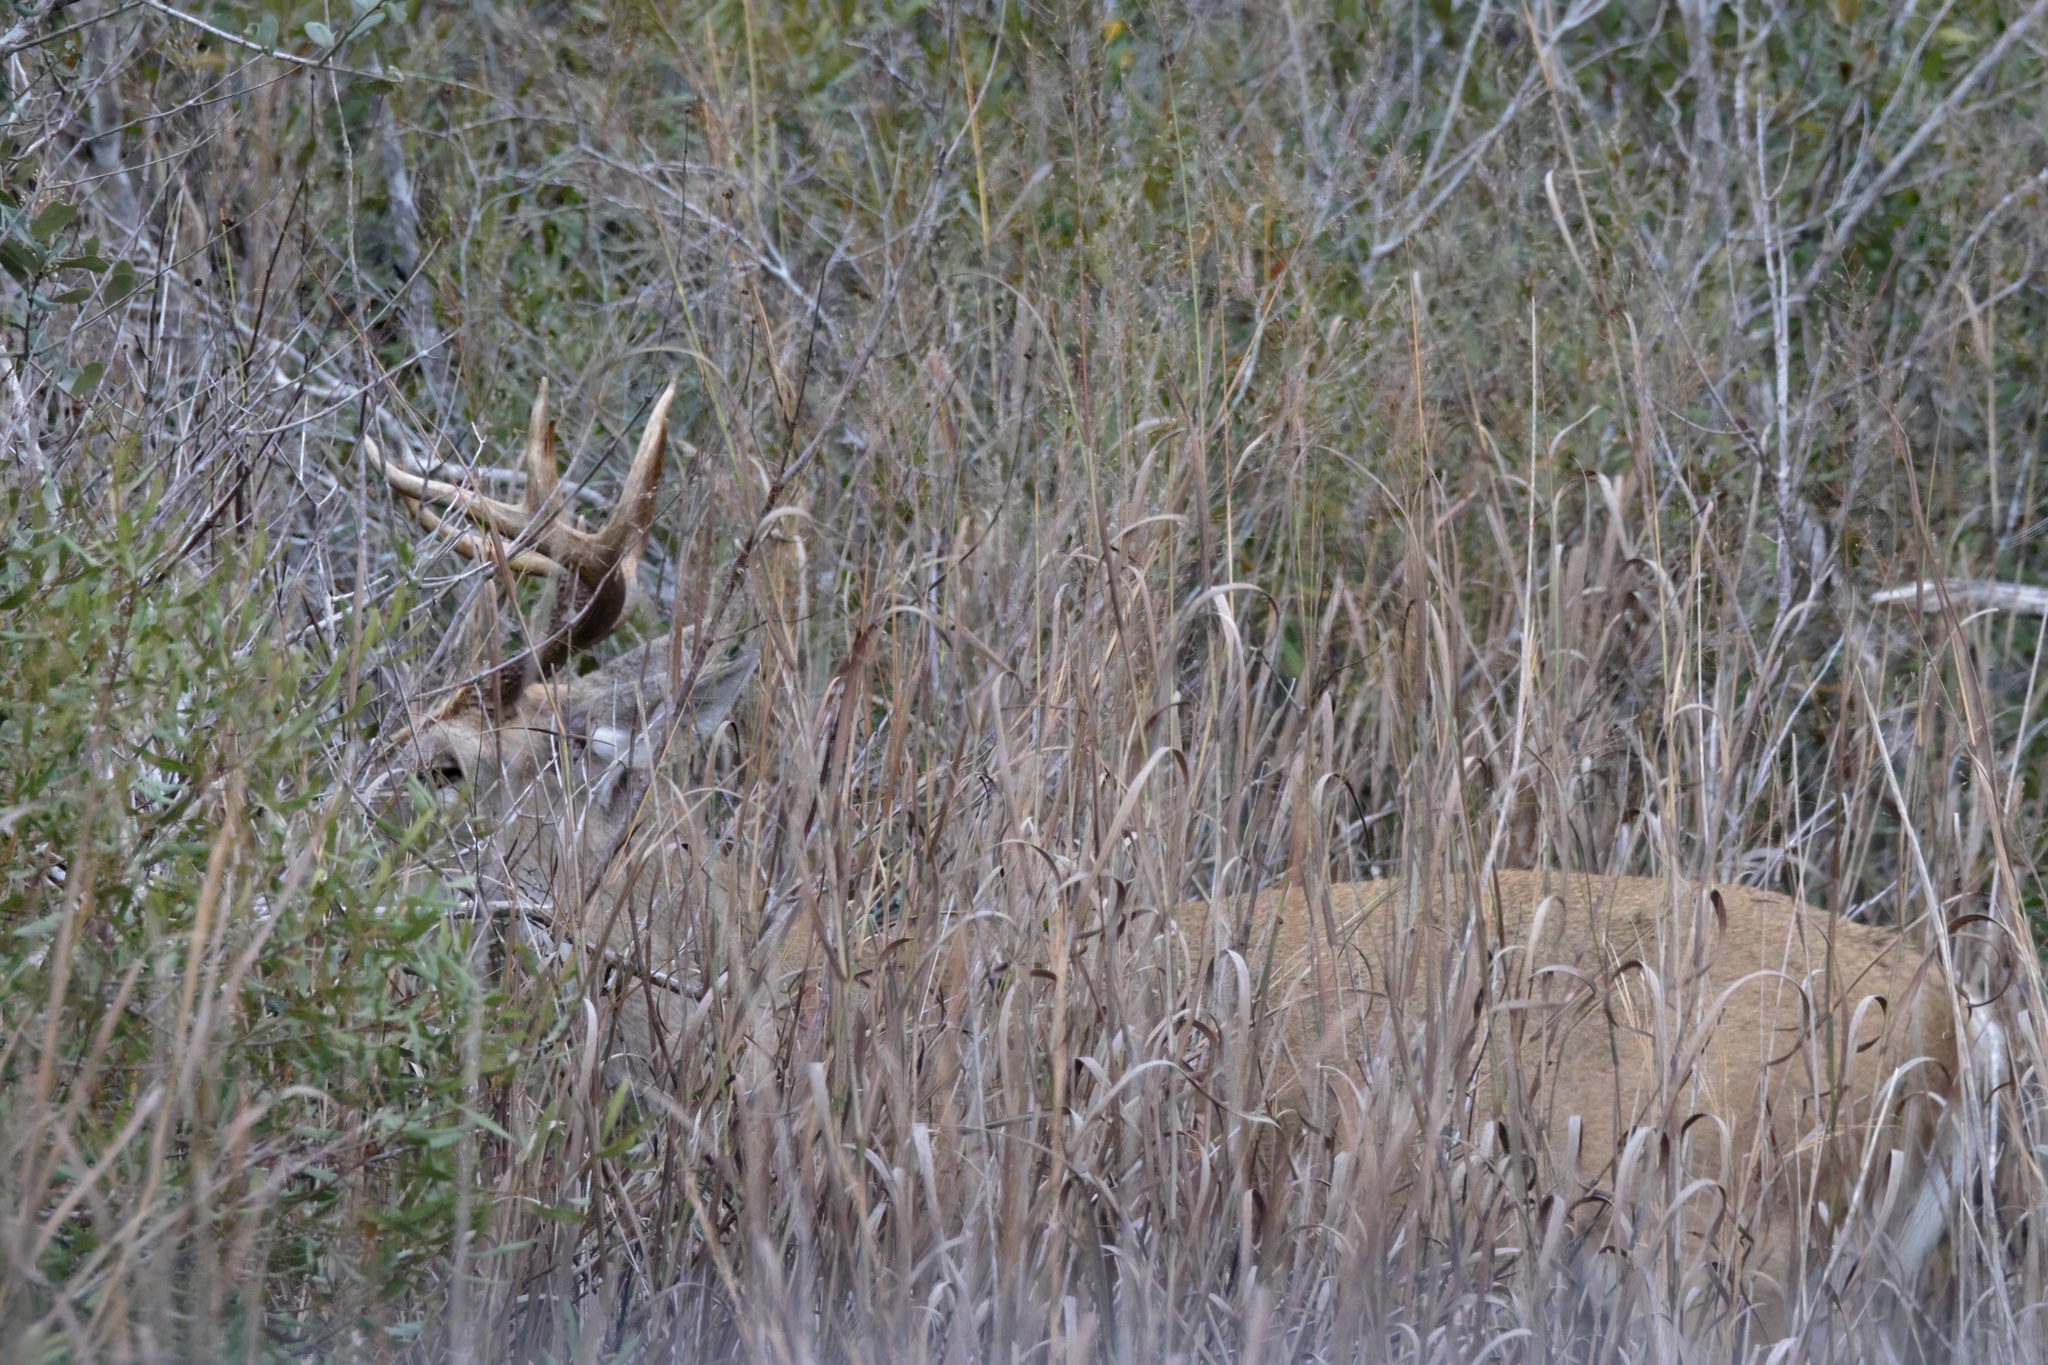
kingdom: Animalia
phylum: Chordata
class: Mammalia
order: Artiodactyla
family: Cervidae
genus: Odocoileus
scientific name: Odocoileus virginianus
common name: White-tailed deer
